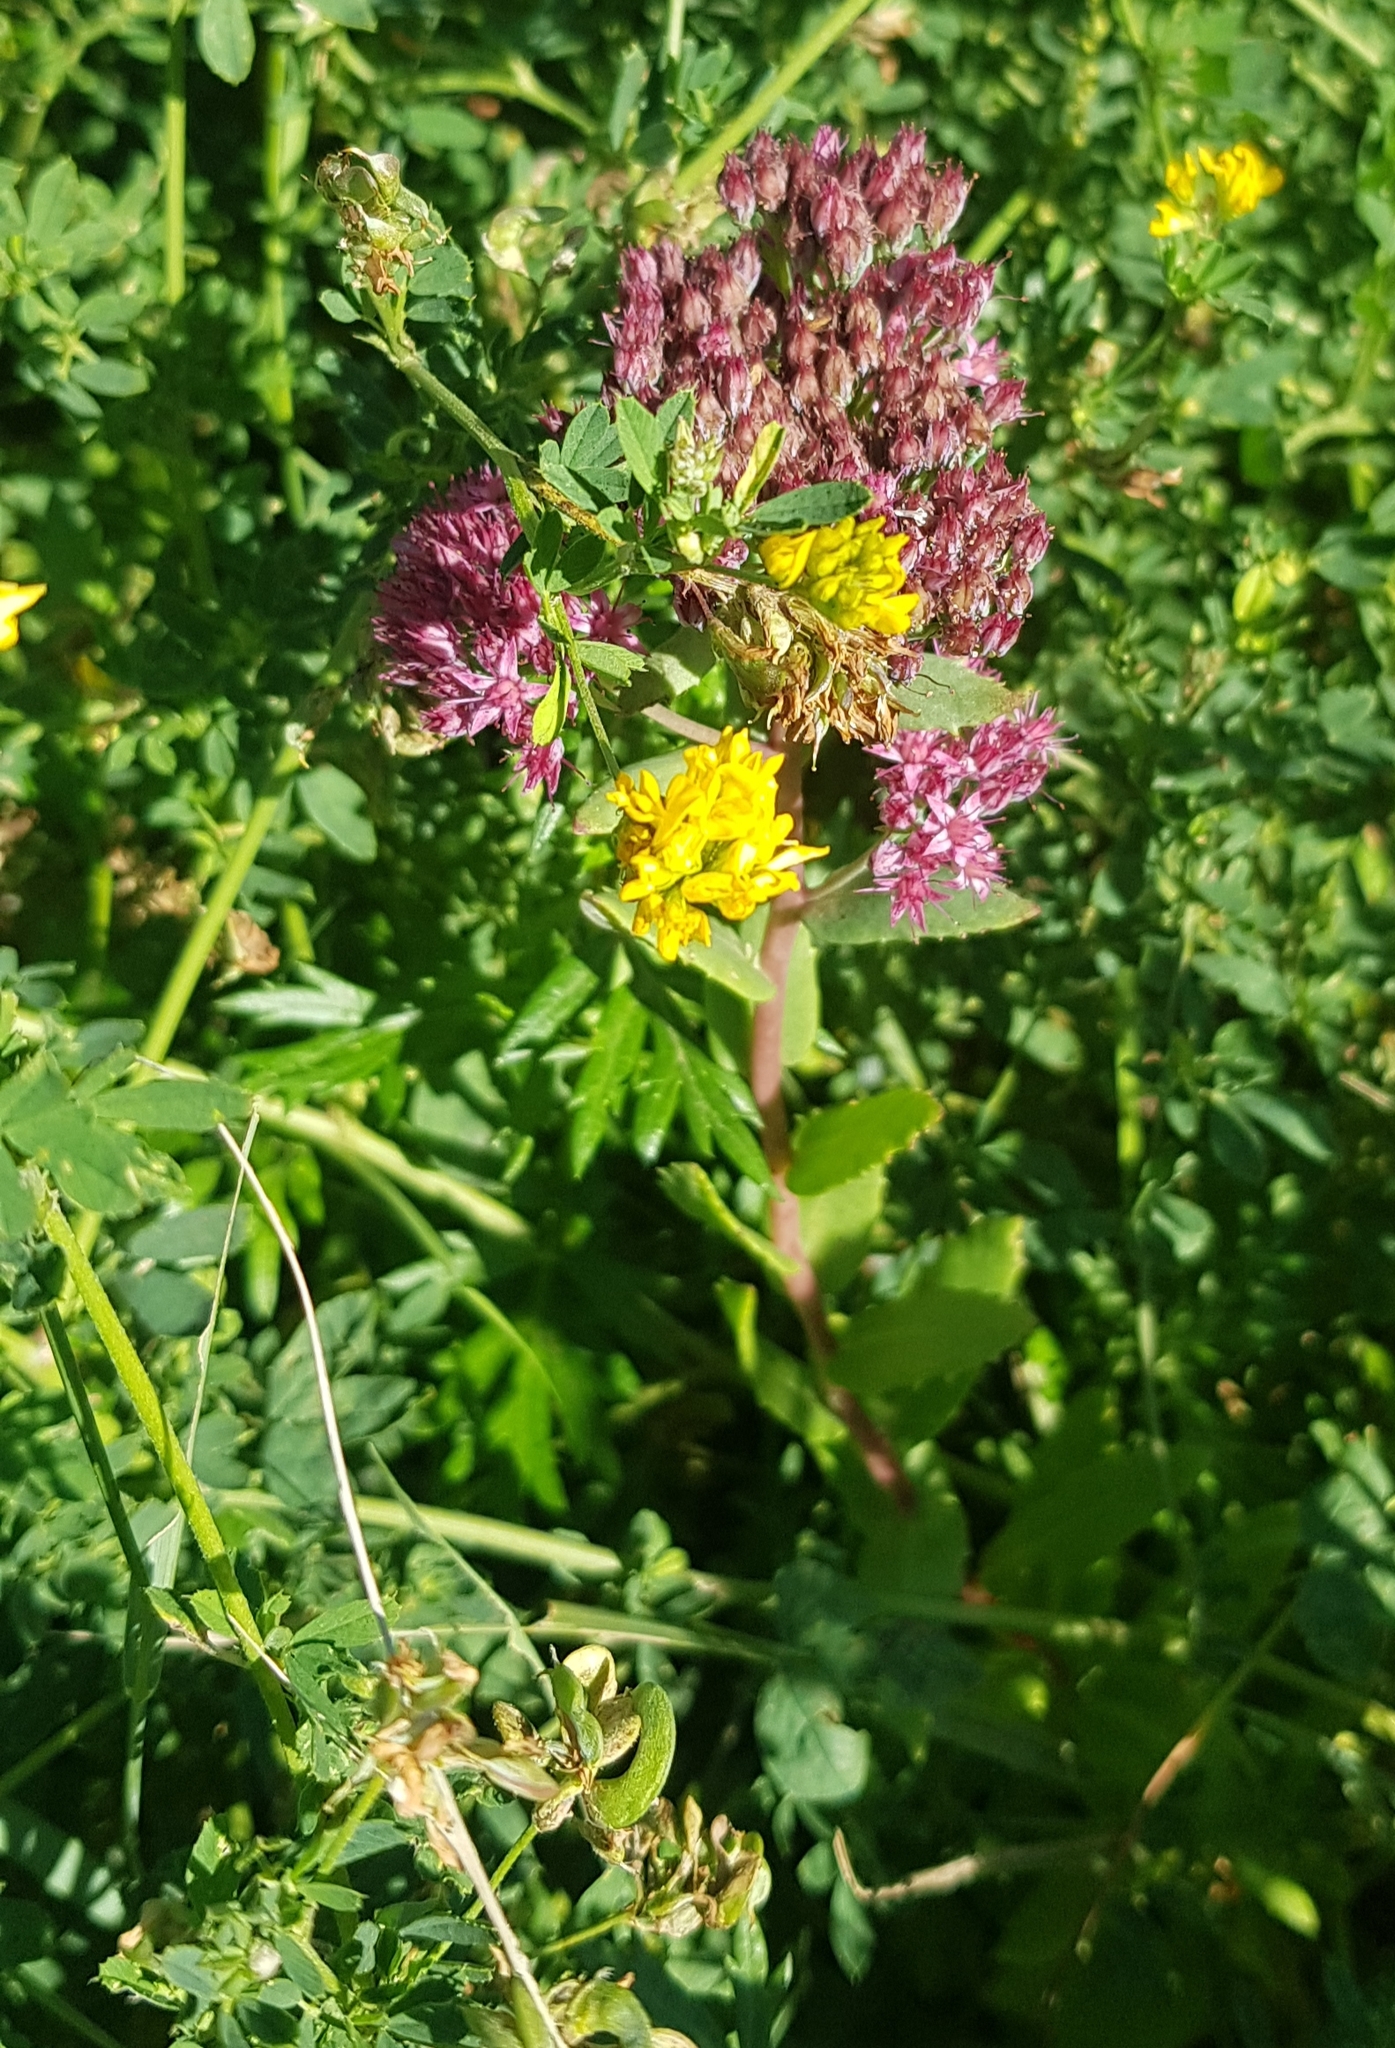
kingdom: Plantae
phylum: Tracheophyta
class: Magnoliopsida
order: Saxifragales
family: Crassulaceae
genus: Hylotelephium
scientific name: Hylotelephium telephium
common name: Live-forever
